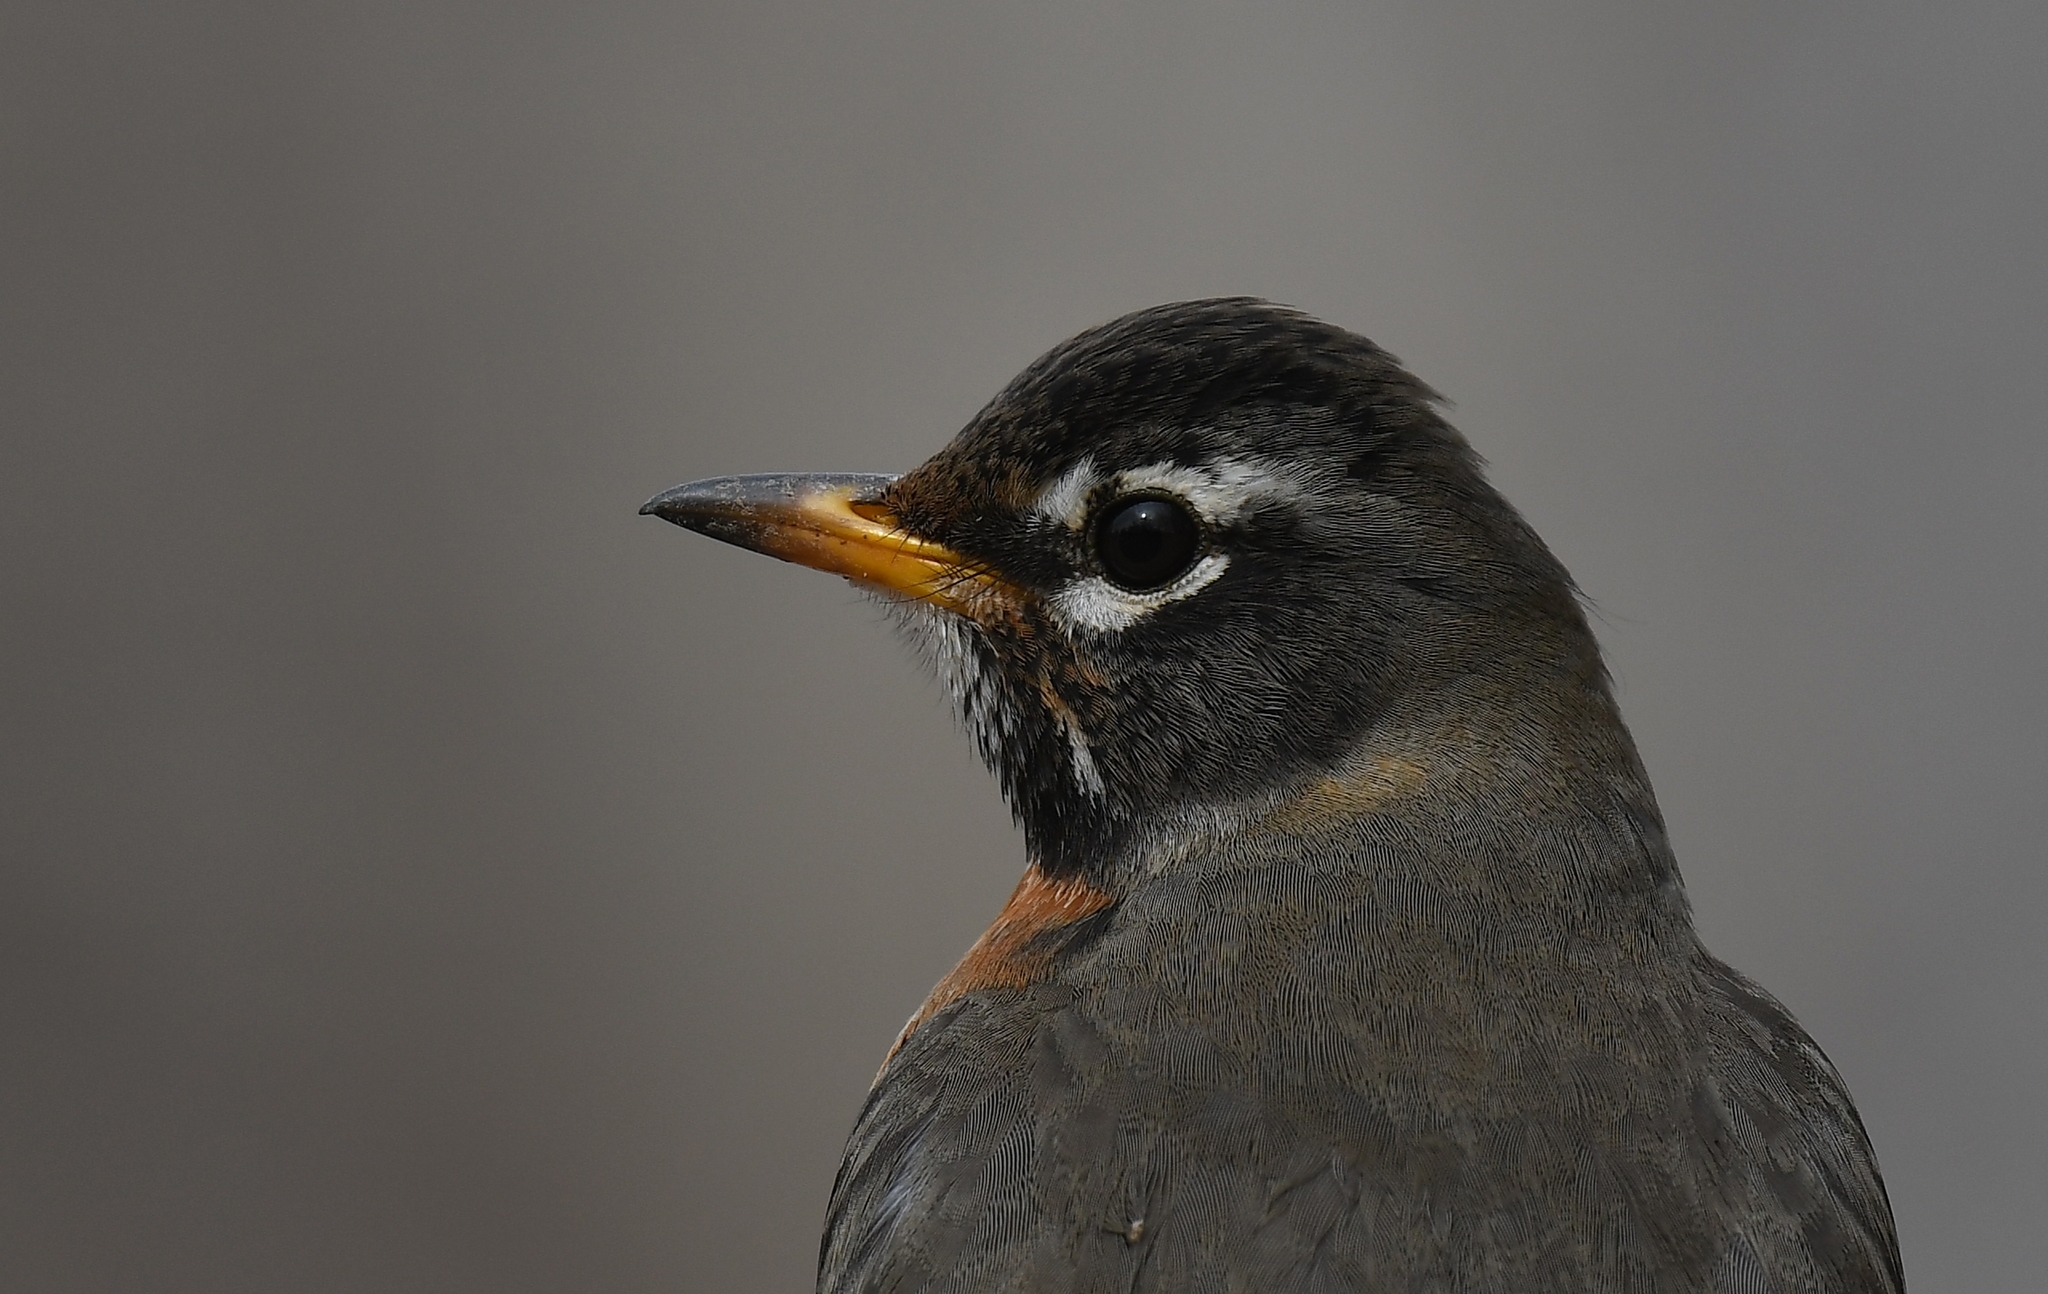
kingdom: Animalia
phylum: Chordata
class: Aves
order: Passeriformes
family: Turdidae
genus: Turdus
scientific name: Turdus migratorius
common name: American robin
